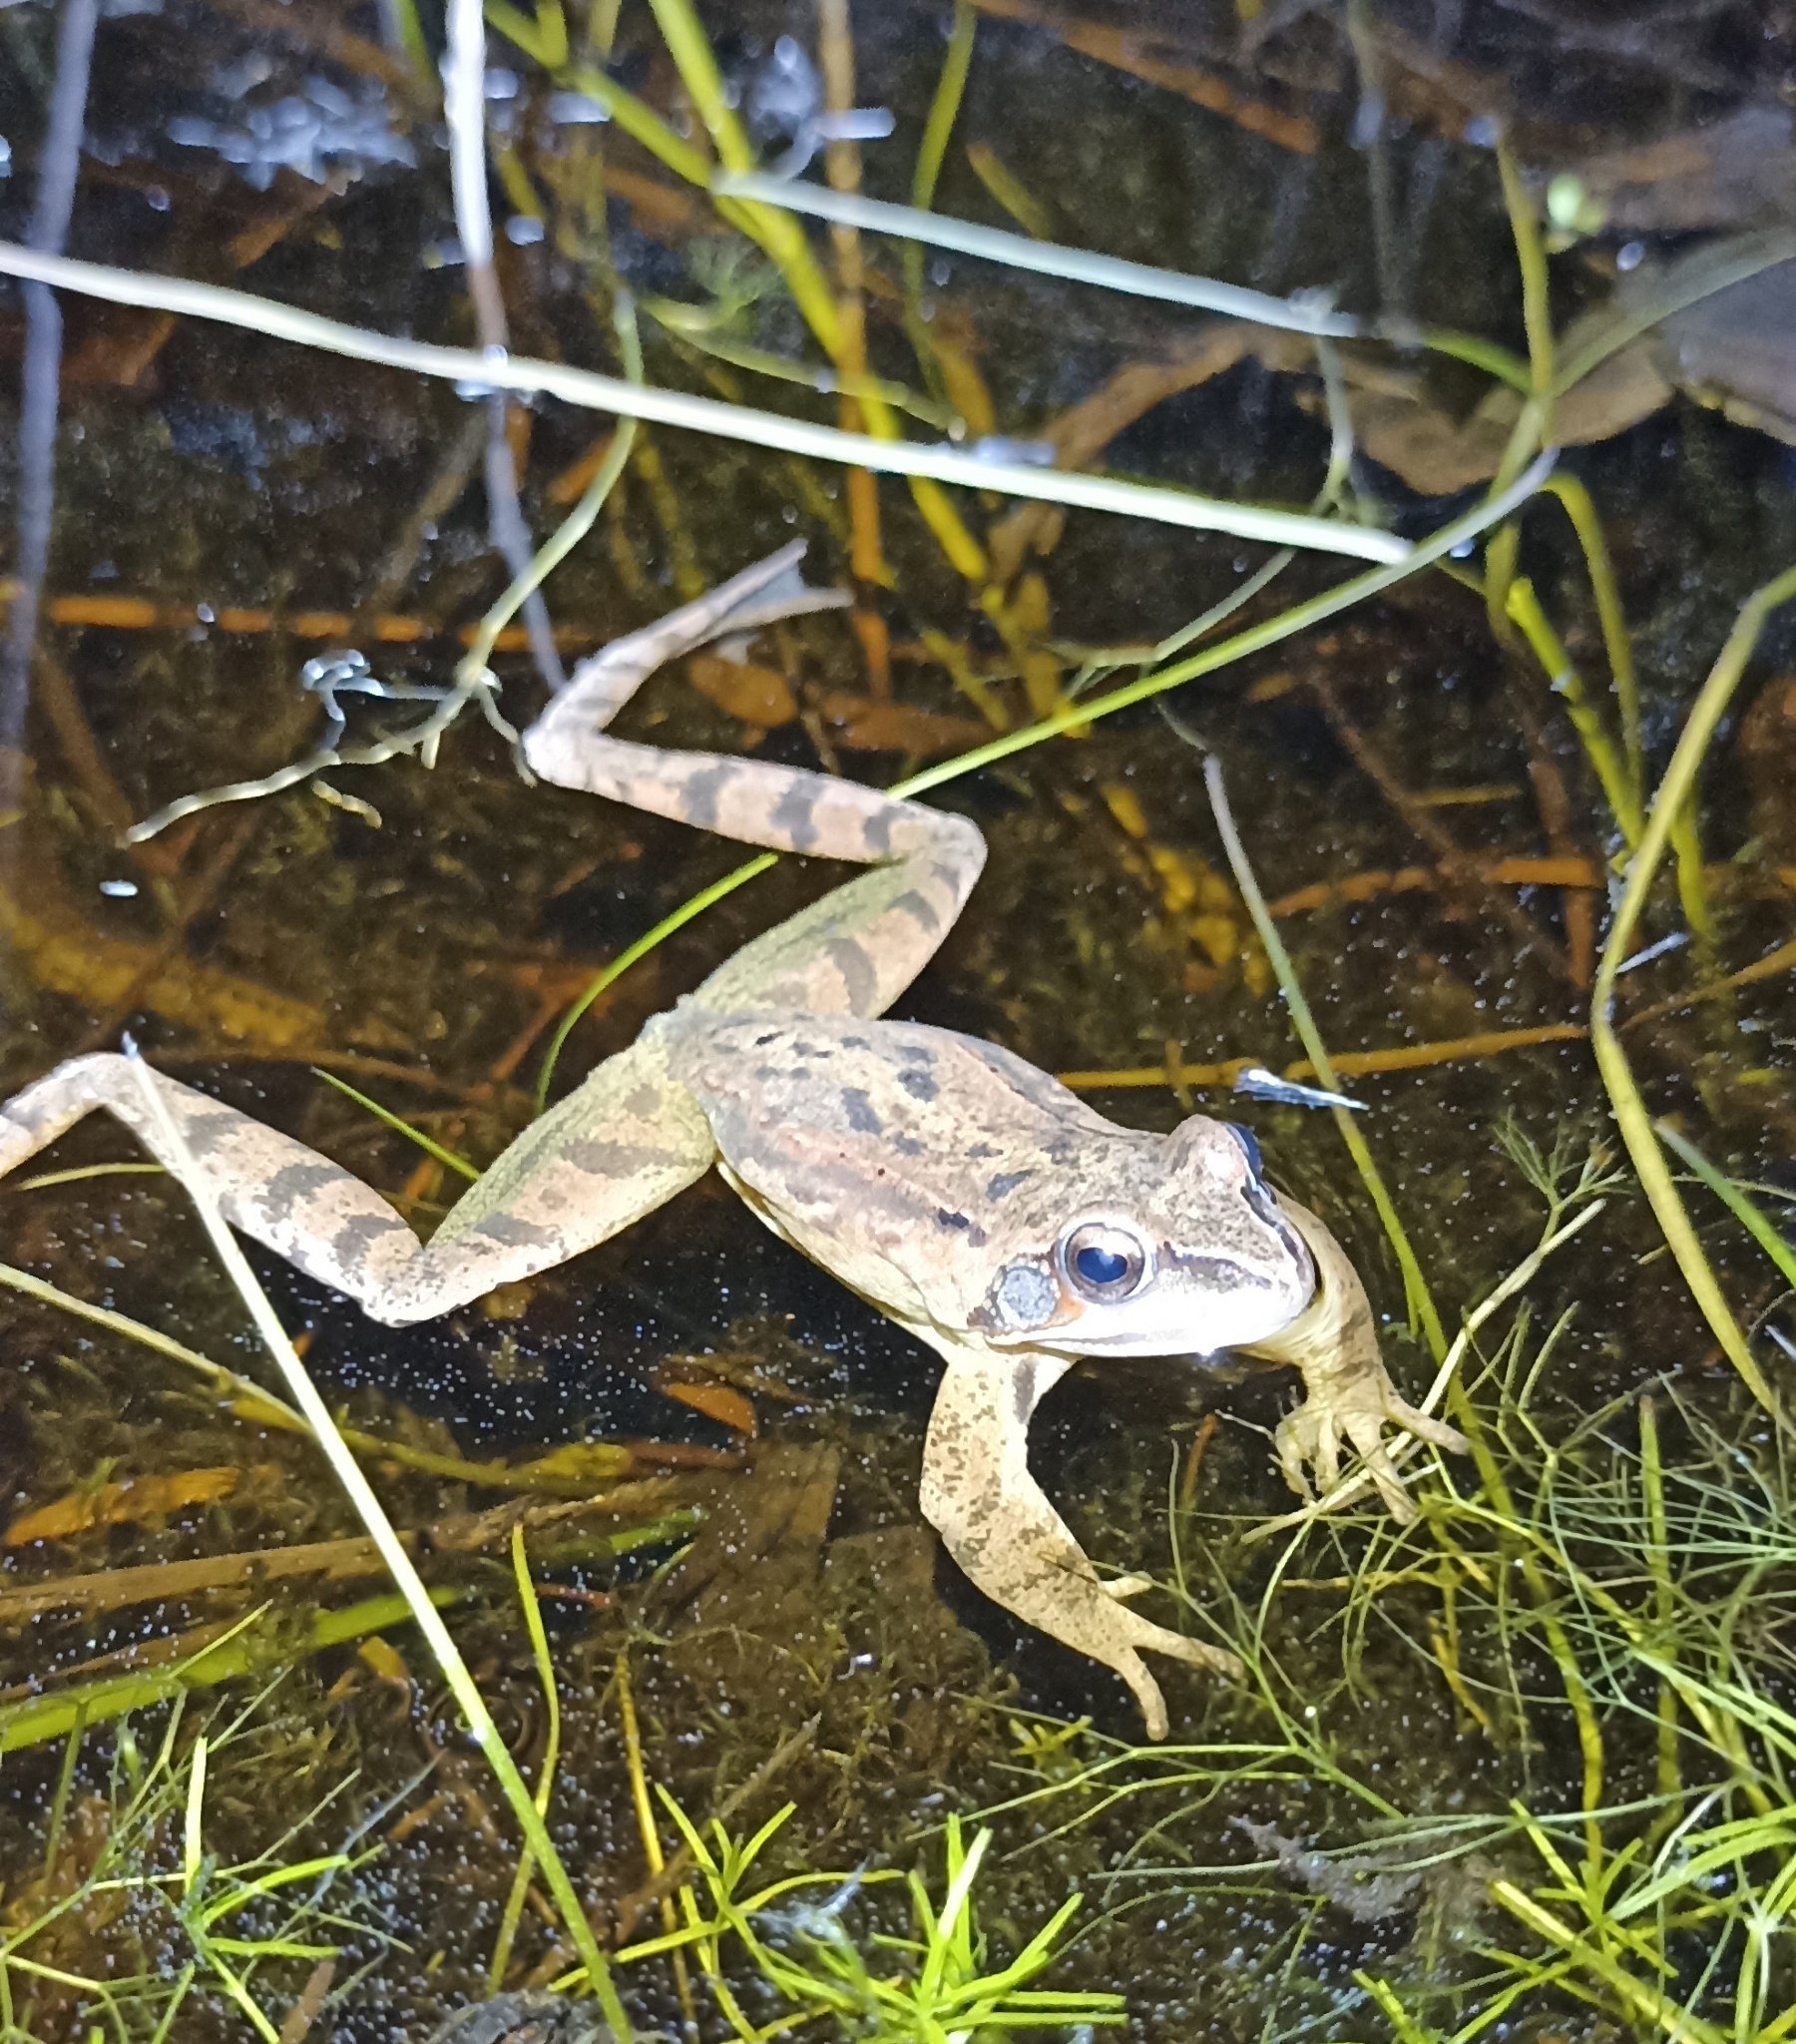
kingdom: Animalia
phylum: Chordata
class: Amphibia
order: Anura
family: Ranidae
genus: Rana
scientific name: Rana dalmatina
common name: Agile frog
